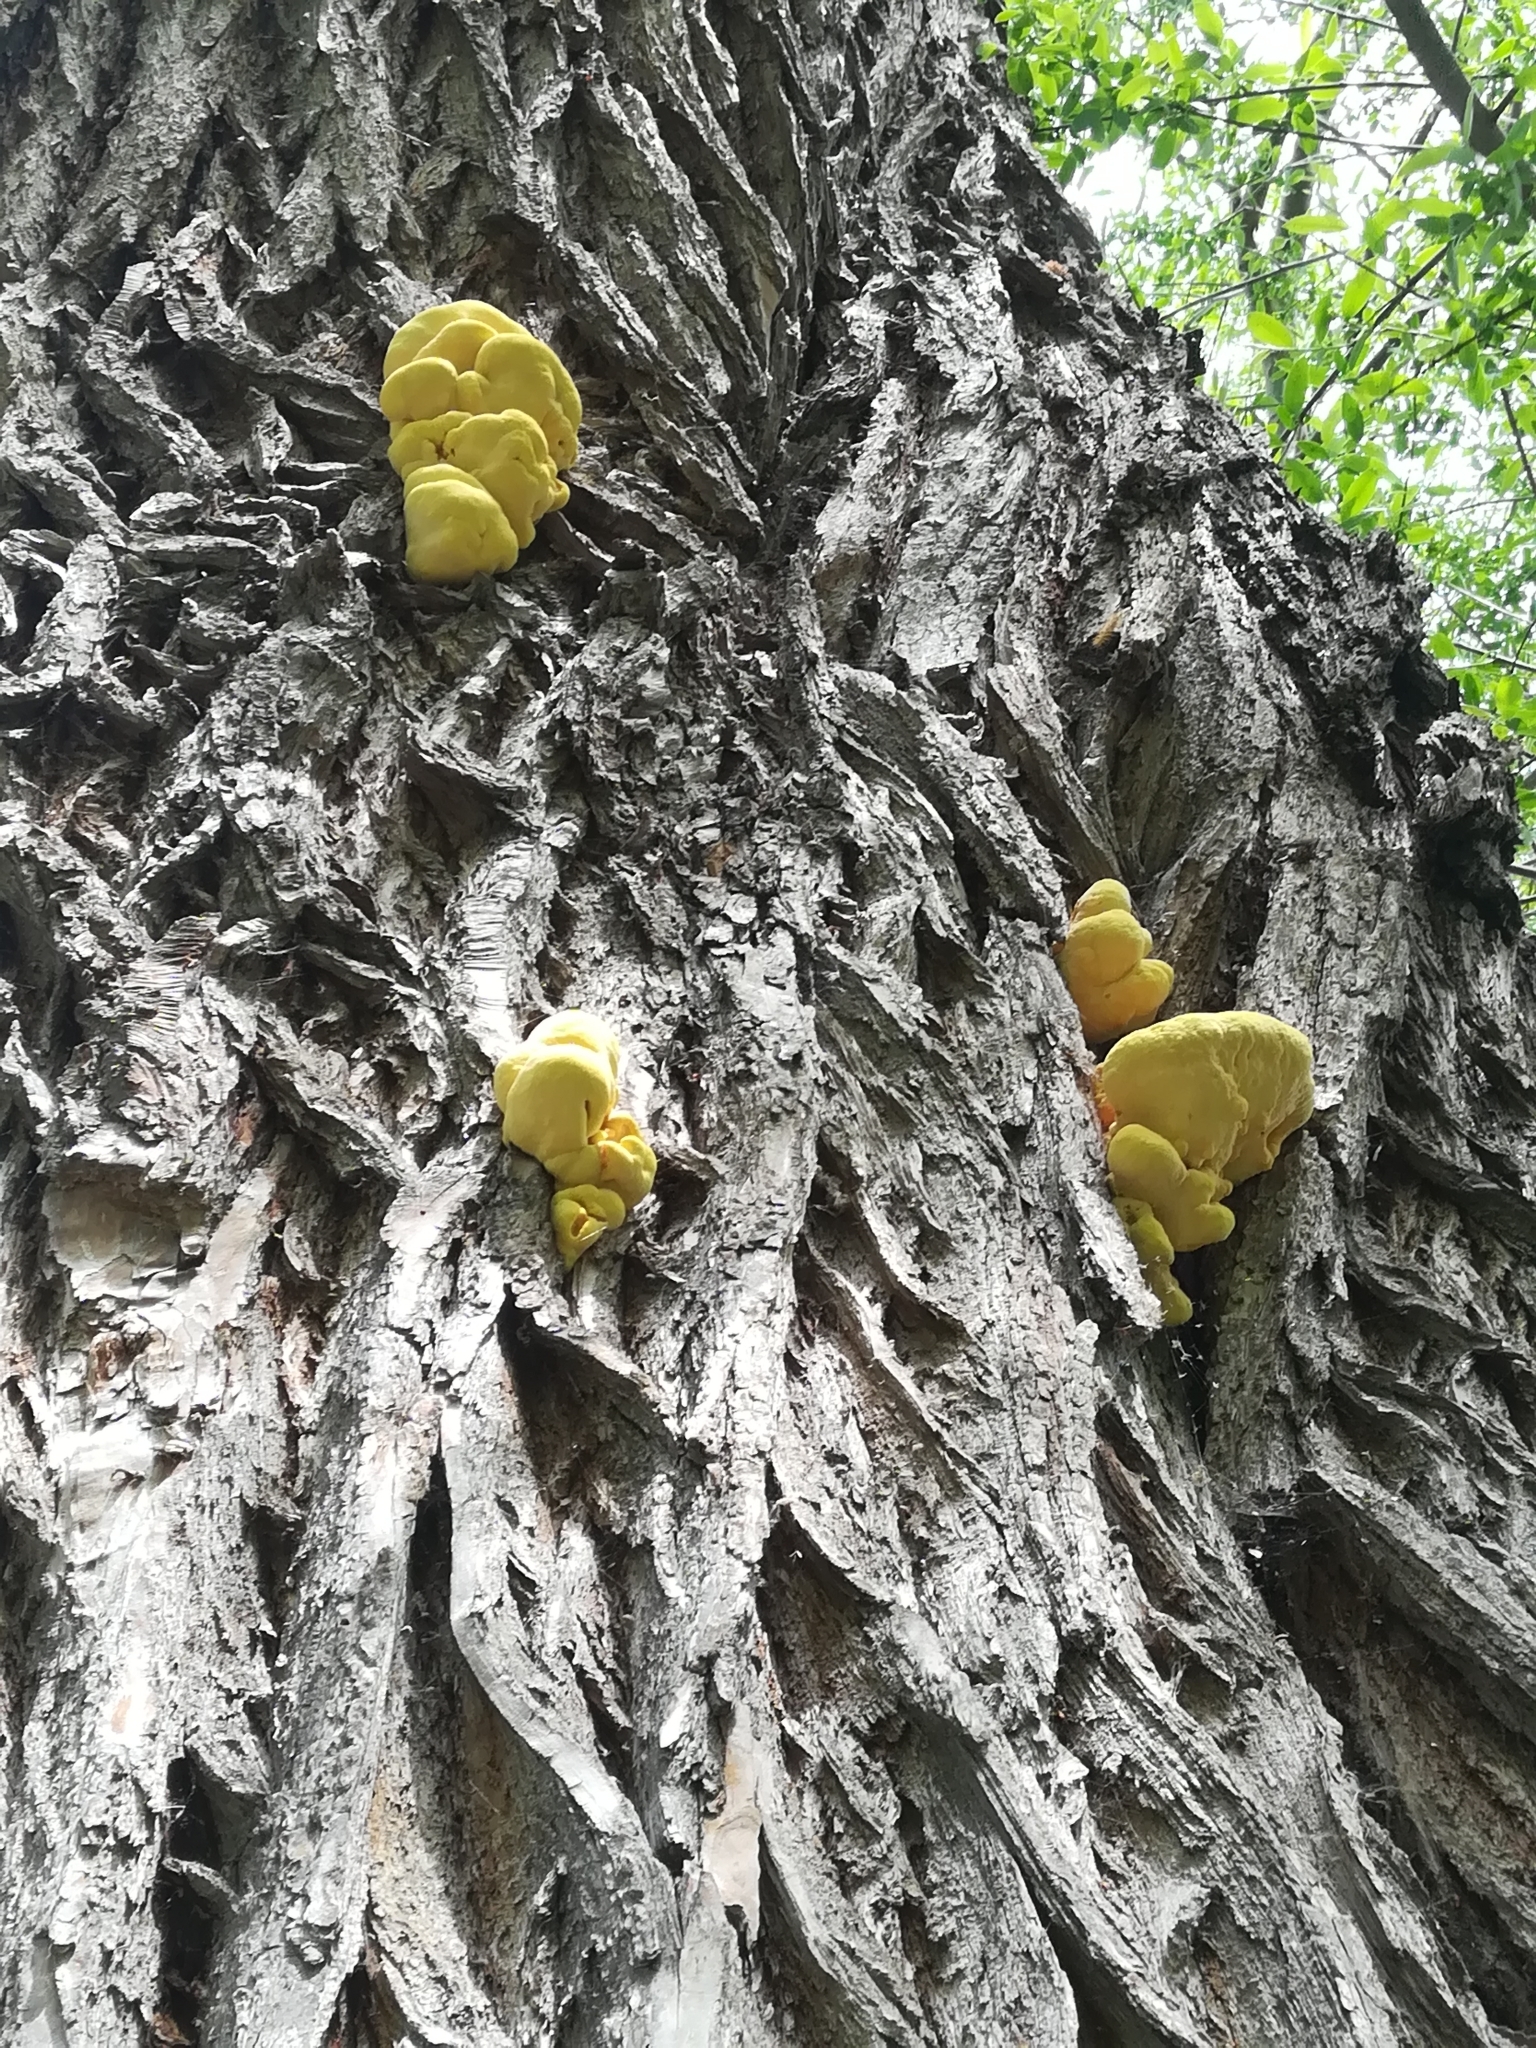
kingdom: Fungi
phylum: Basidiomycota
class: Agaricomycetes
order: Polyporales
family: Laetiporaceae
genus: Laetiporus
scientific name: Laetiporus sulphureus
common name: Chicken of the woods
